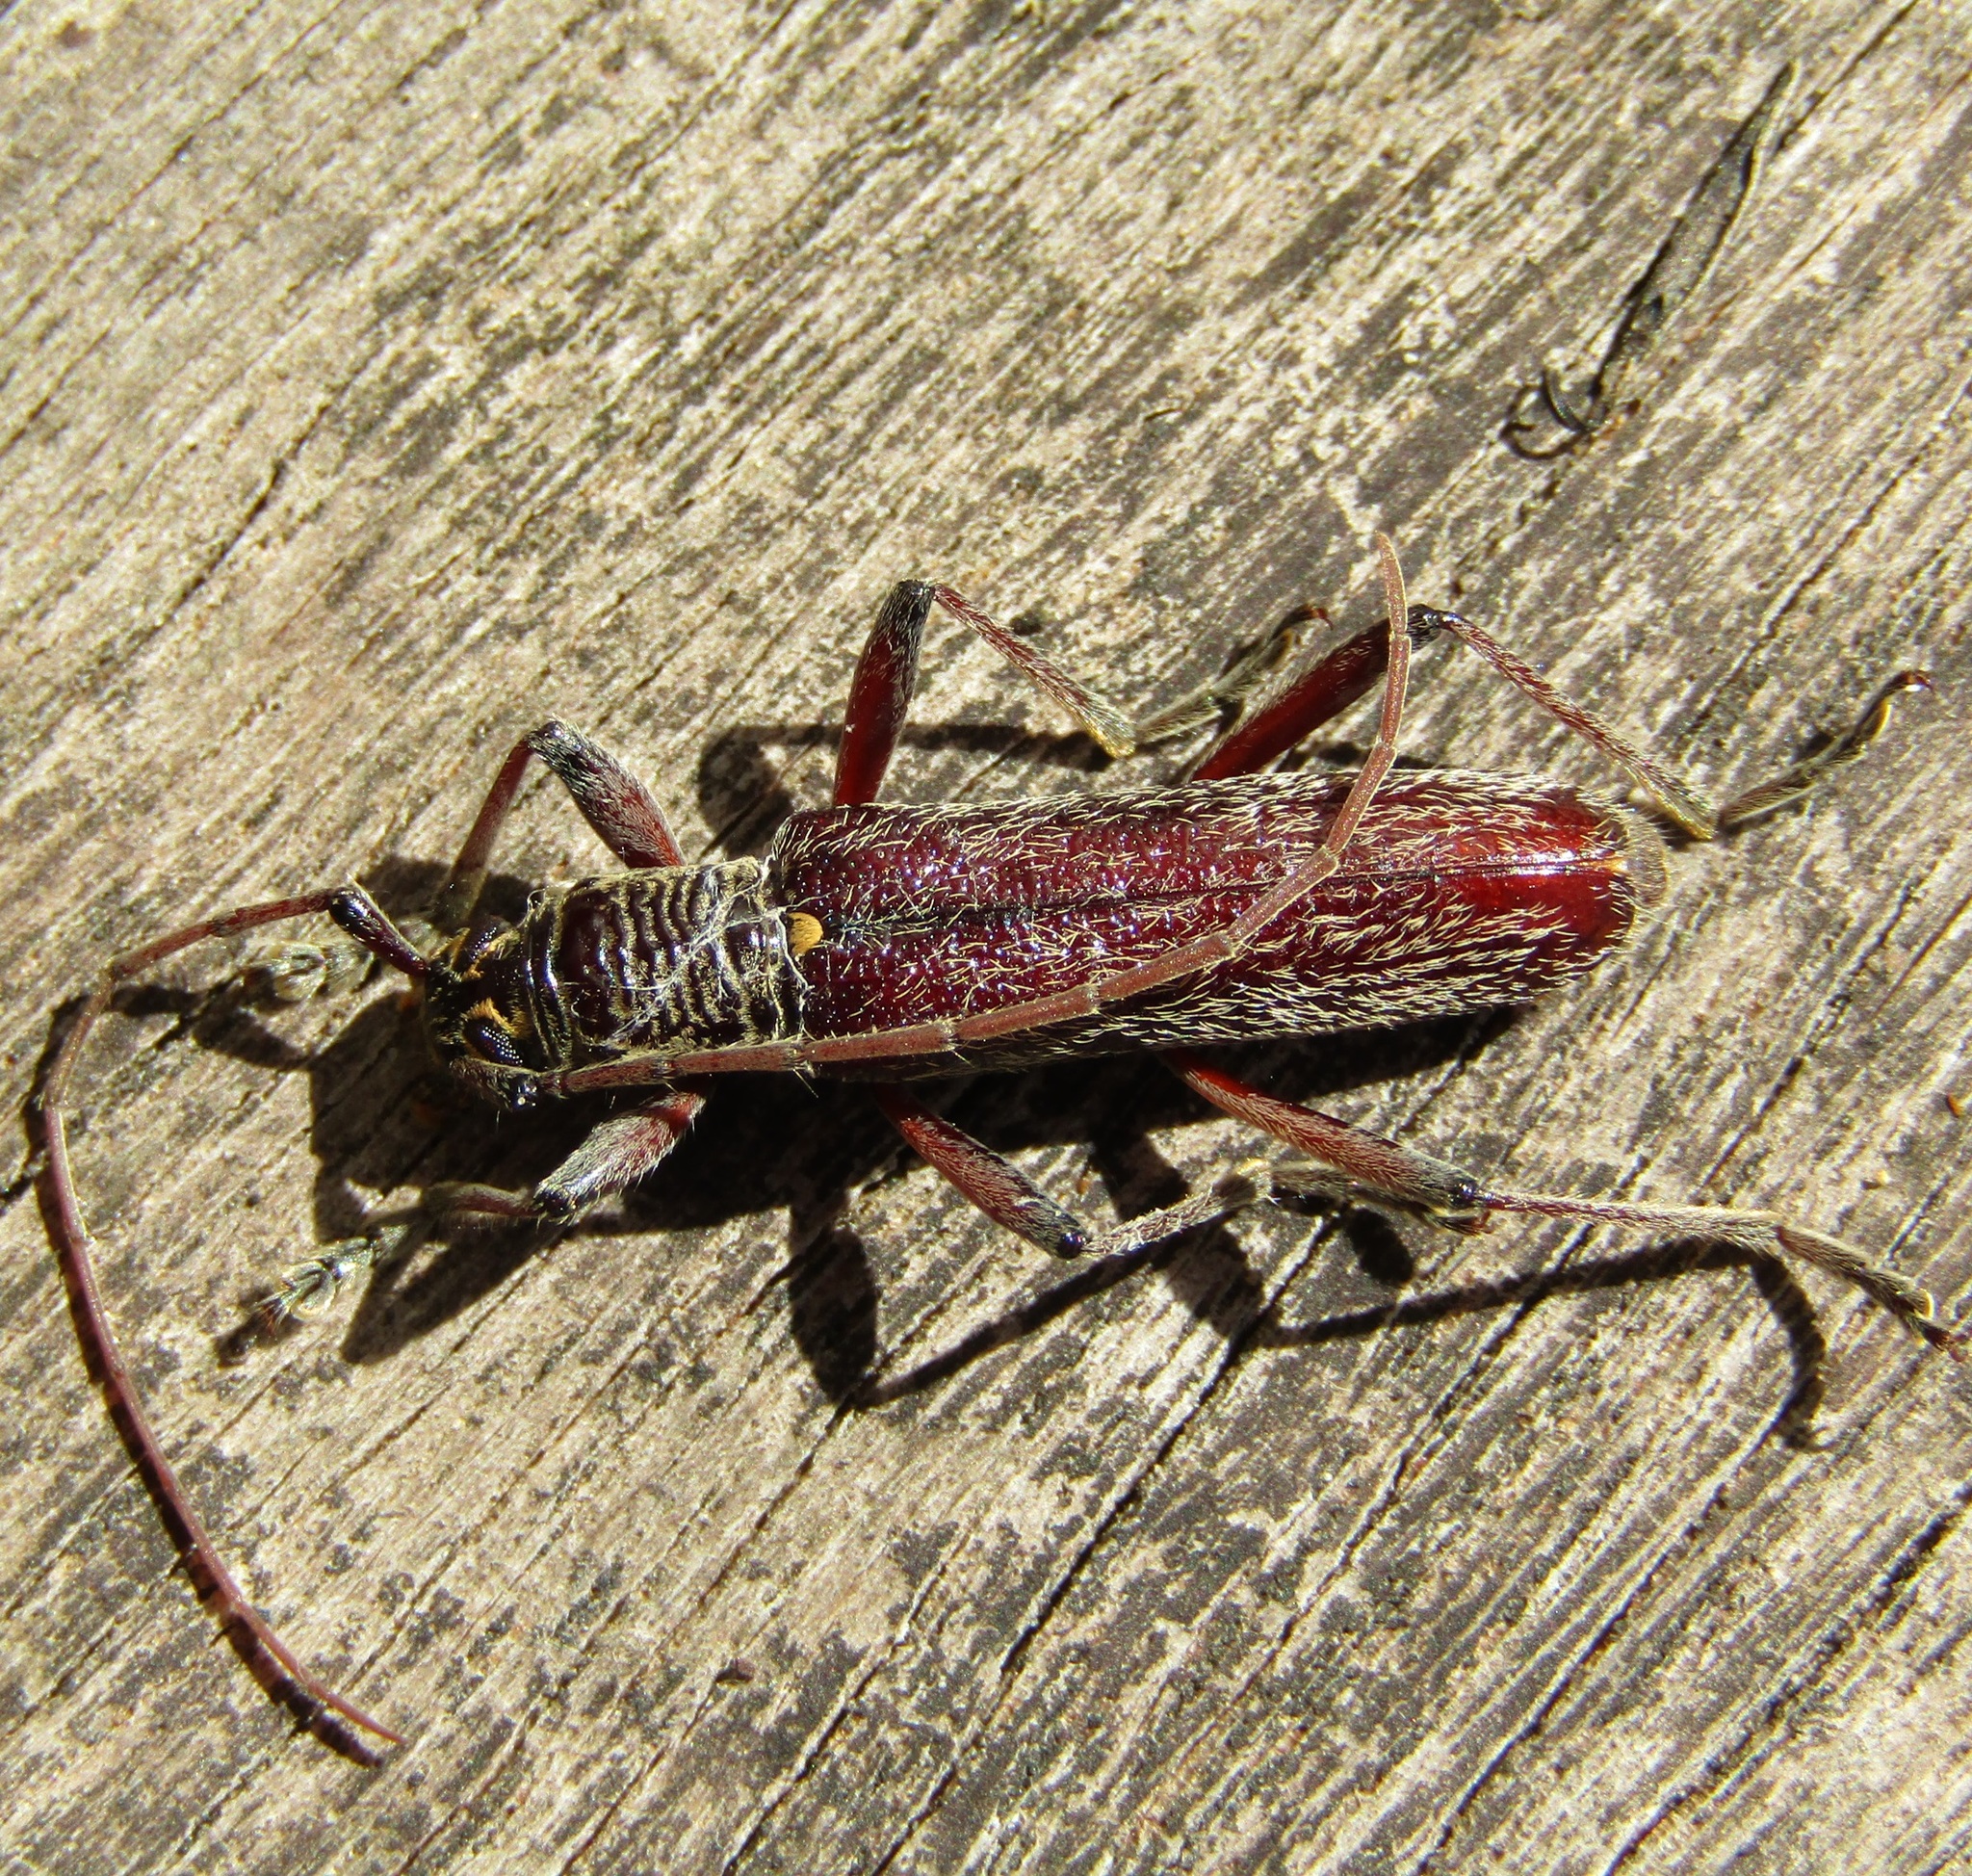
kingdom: Animalia
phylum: Arthropoda
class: Insecta
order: Coleoptera
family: Cerambycidae
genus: Oemona
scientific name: Oemona hirta
